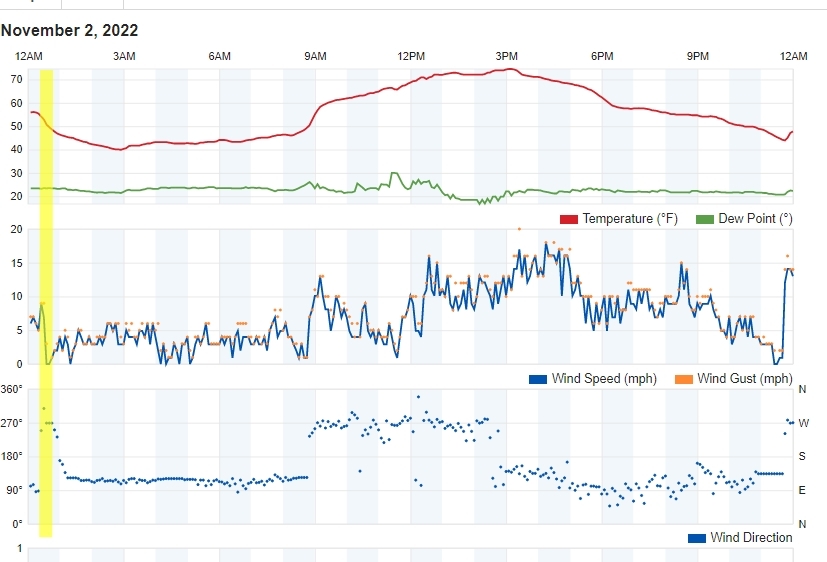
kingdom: Animalia
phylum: Chordata
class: Mammalia
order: Carnivora
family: Felidae
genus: Puma
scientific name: Puma concolor
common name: Puma
